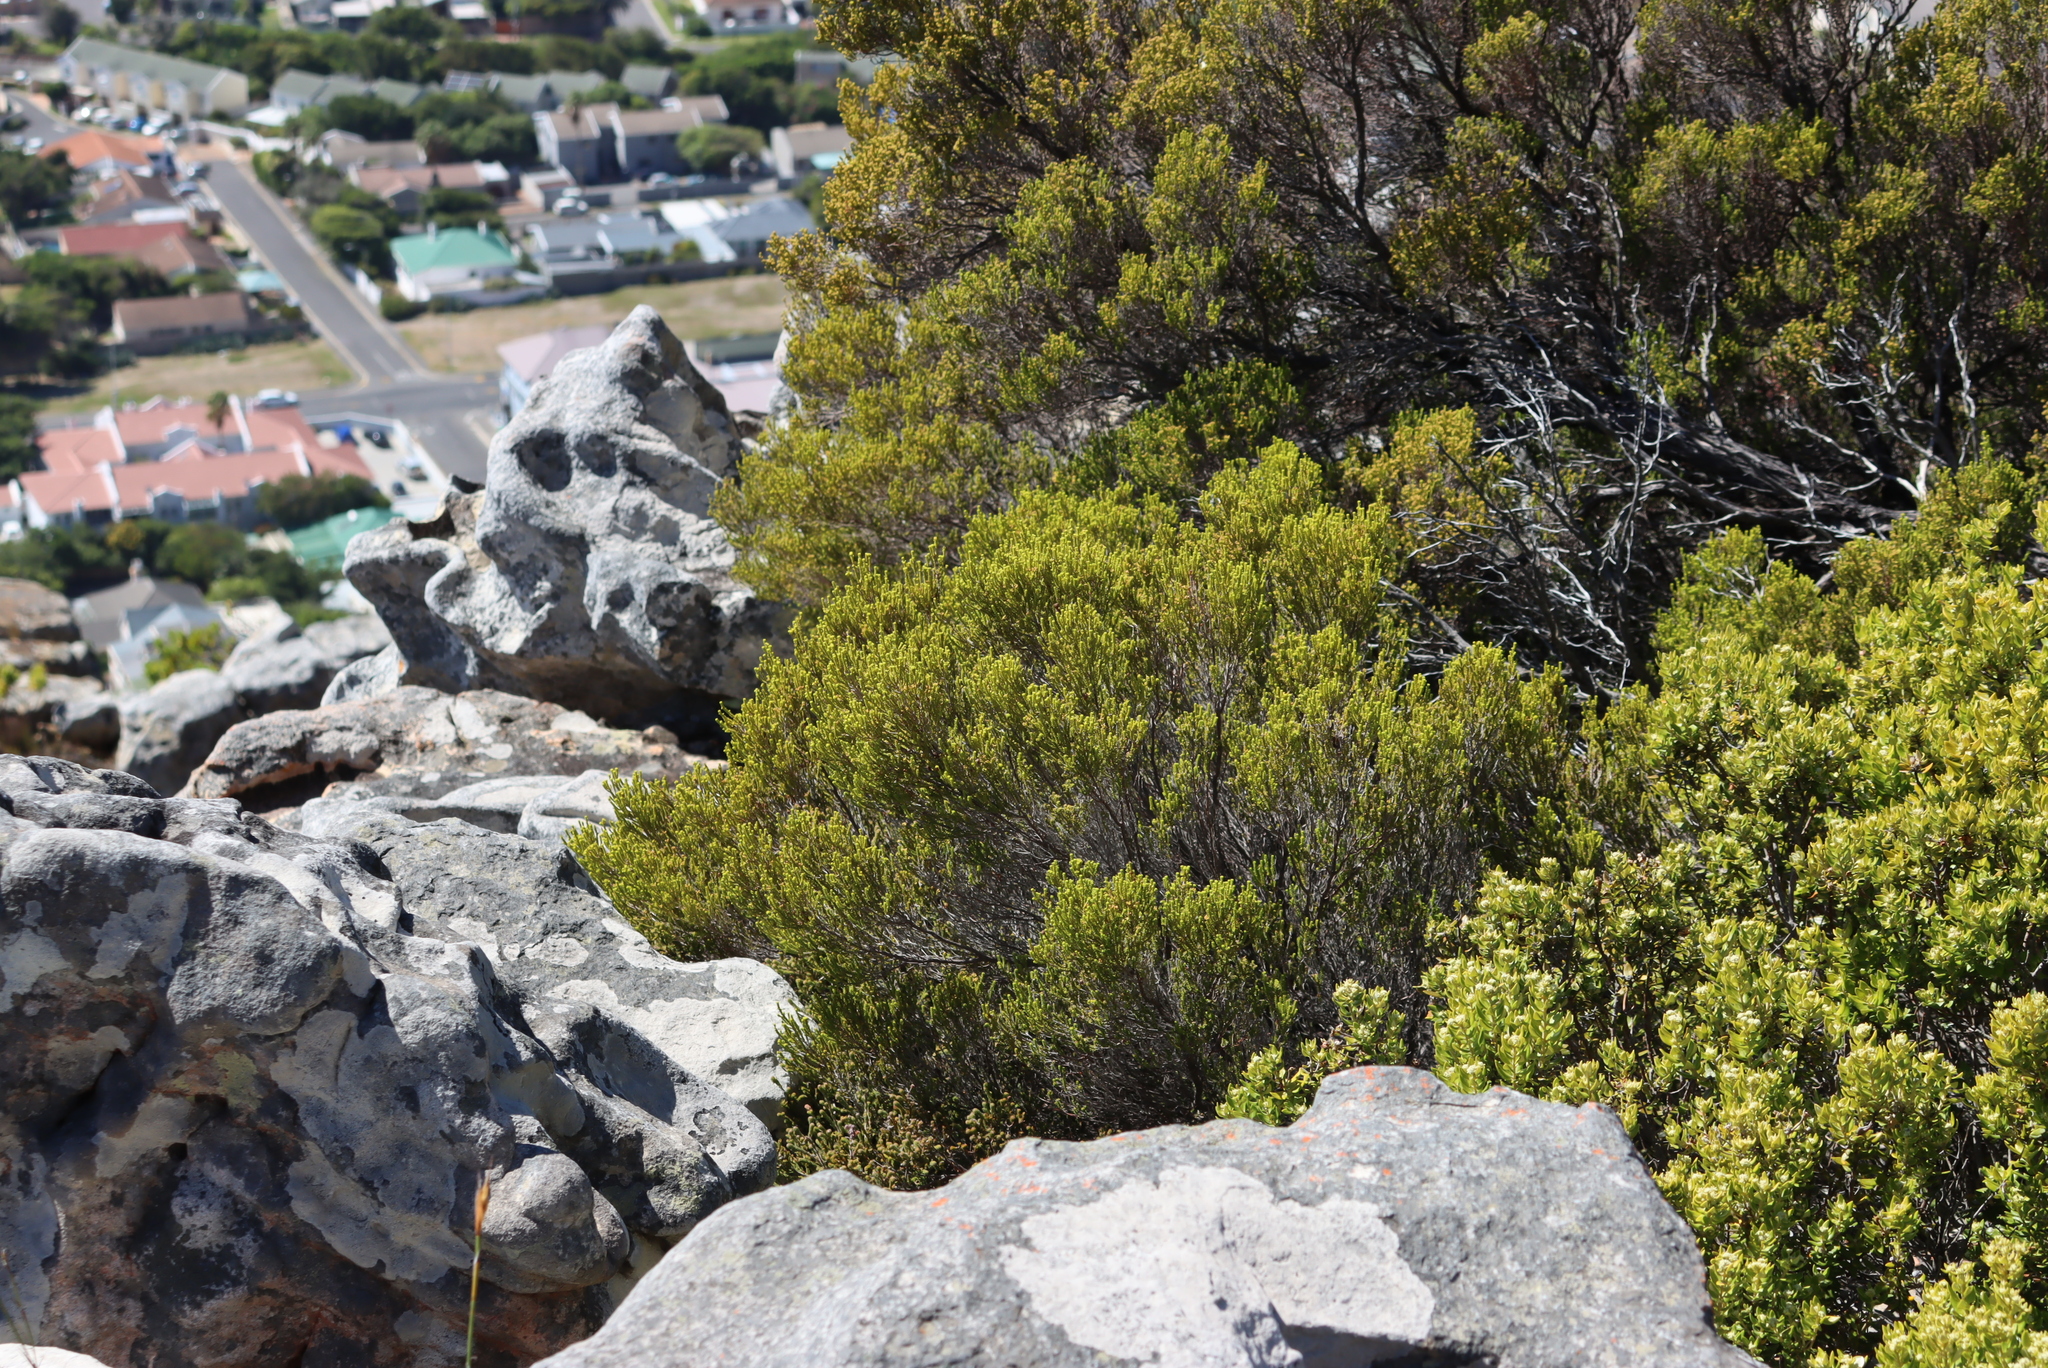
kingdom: Plantae
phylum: Tracheophyta
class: Magnoliopsida
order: Ericales
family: Ericaceae
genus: Erica
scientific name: Erica tristis
